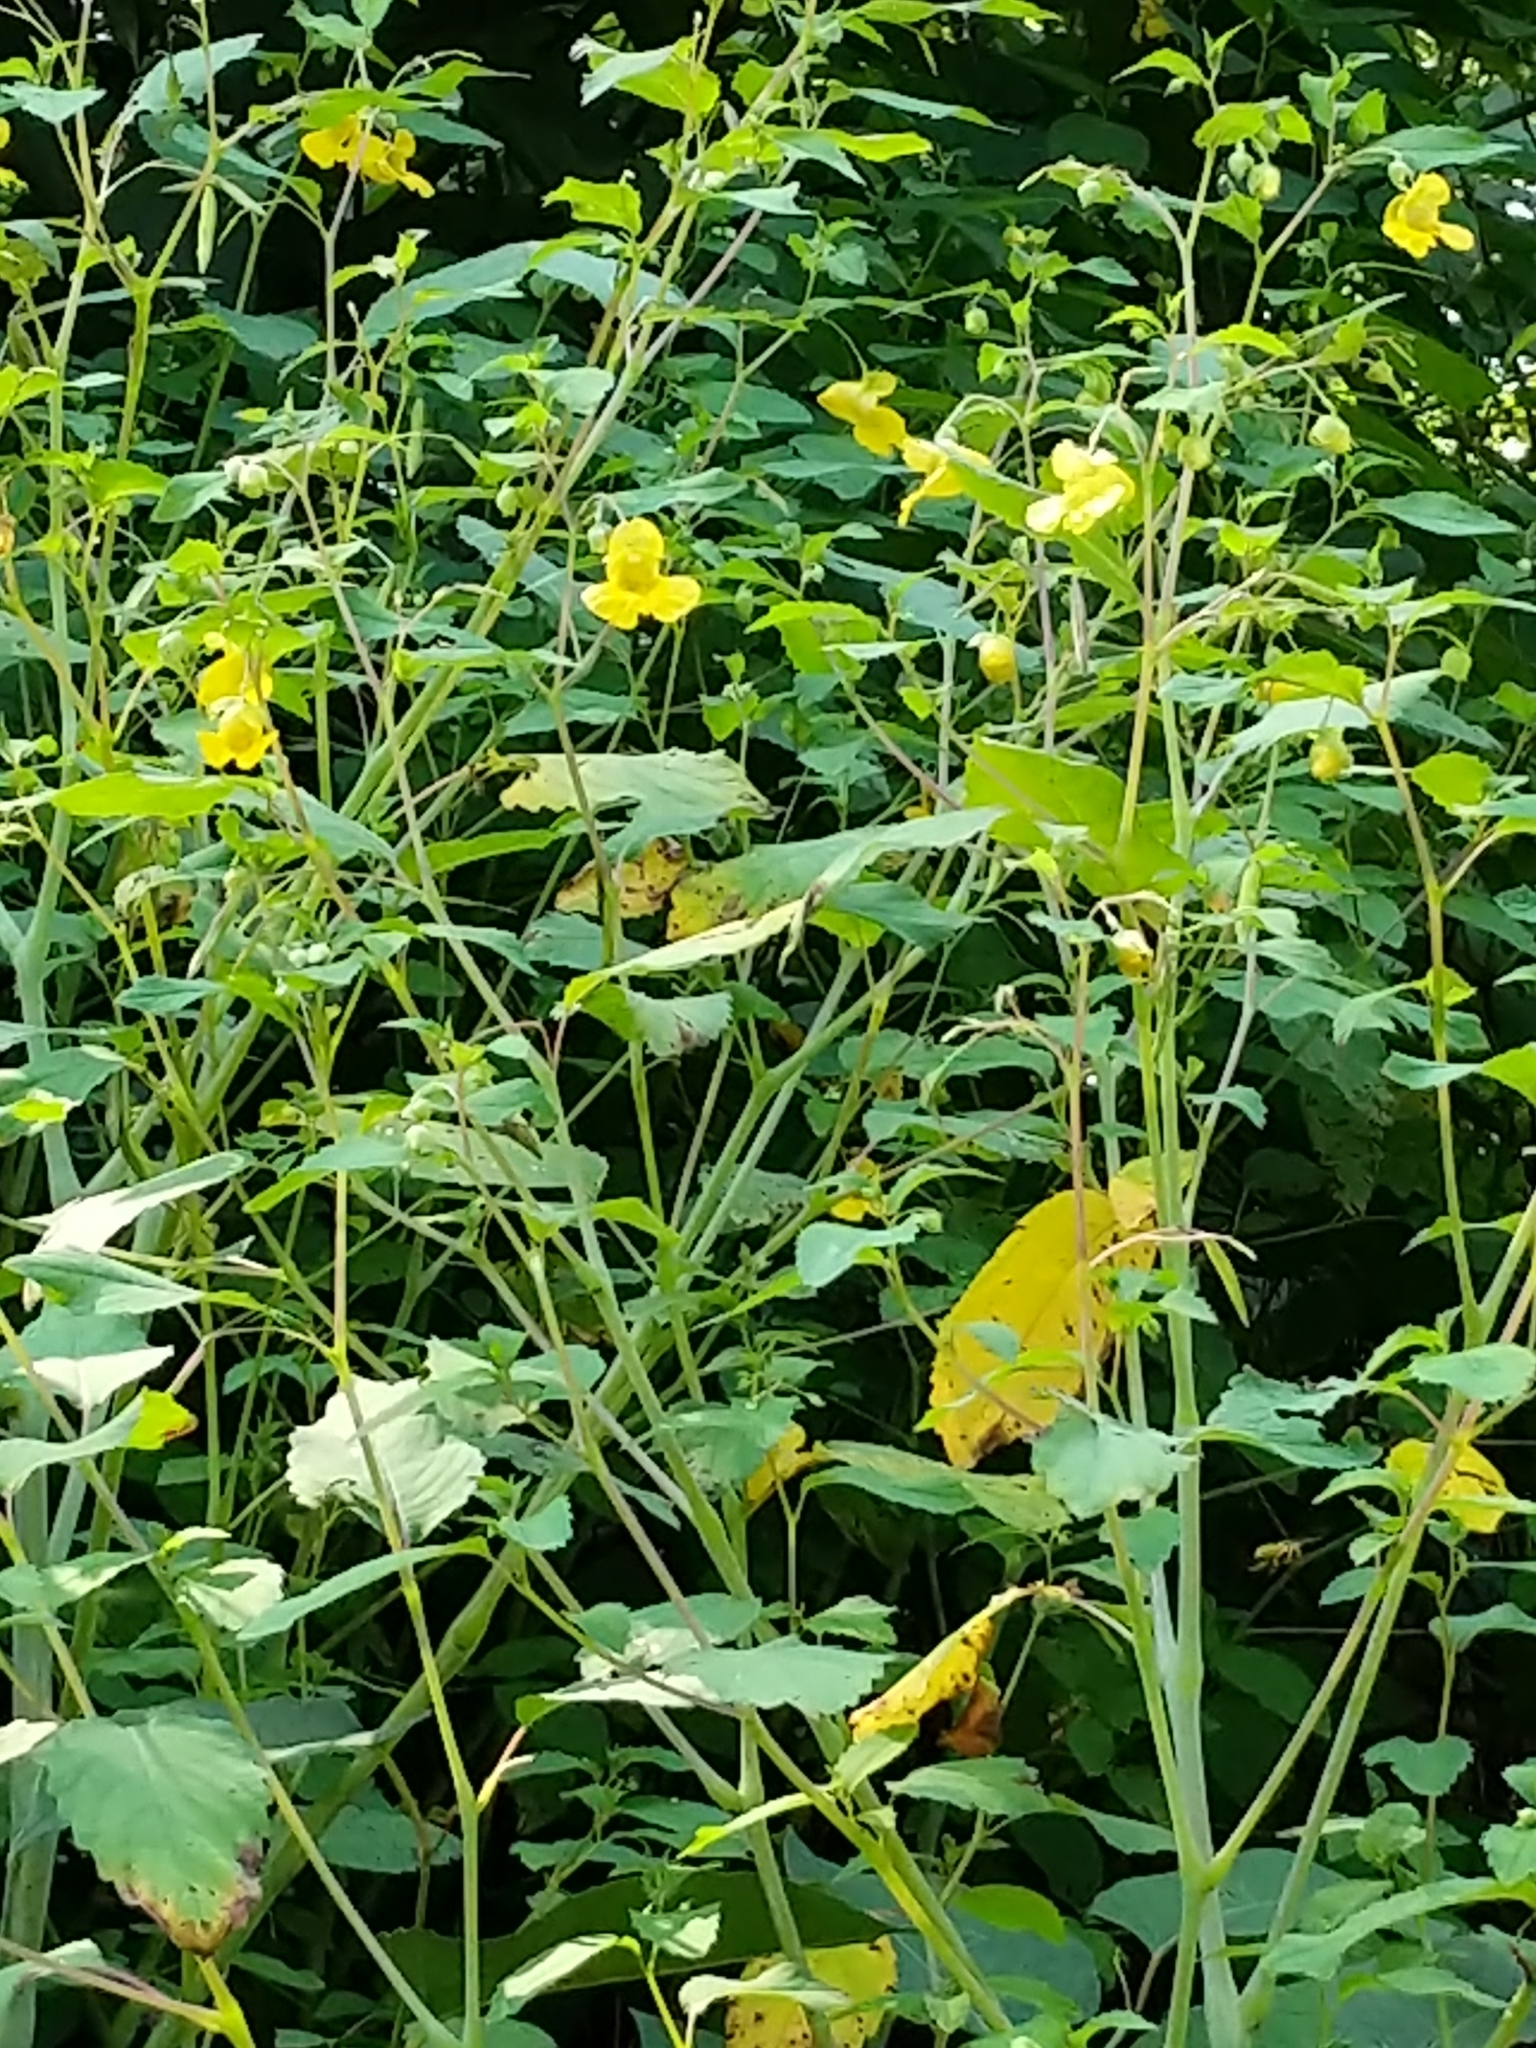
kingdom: Plantae
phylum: Tracheophyta
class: Magnoliopsida
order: Ericales
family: Balsaminaceae
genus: Impatiens
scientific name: Impatiens pallida
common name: Pale snapweed
